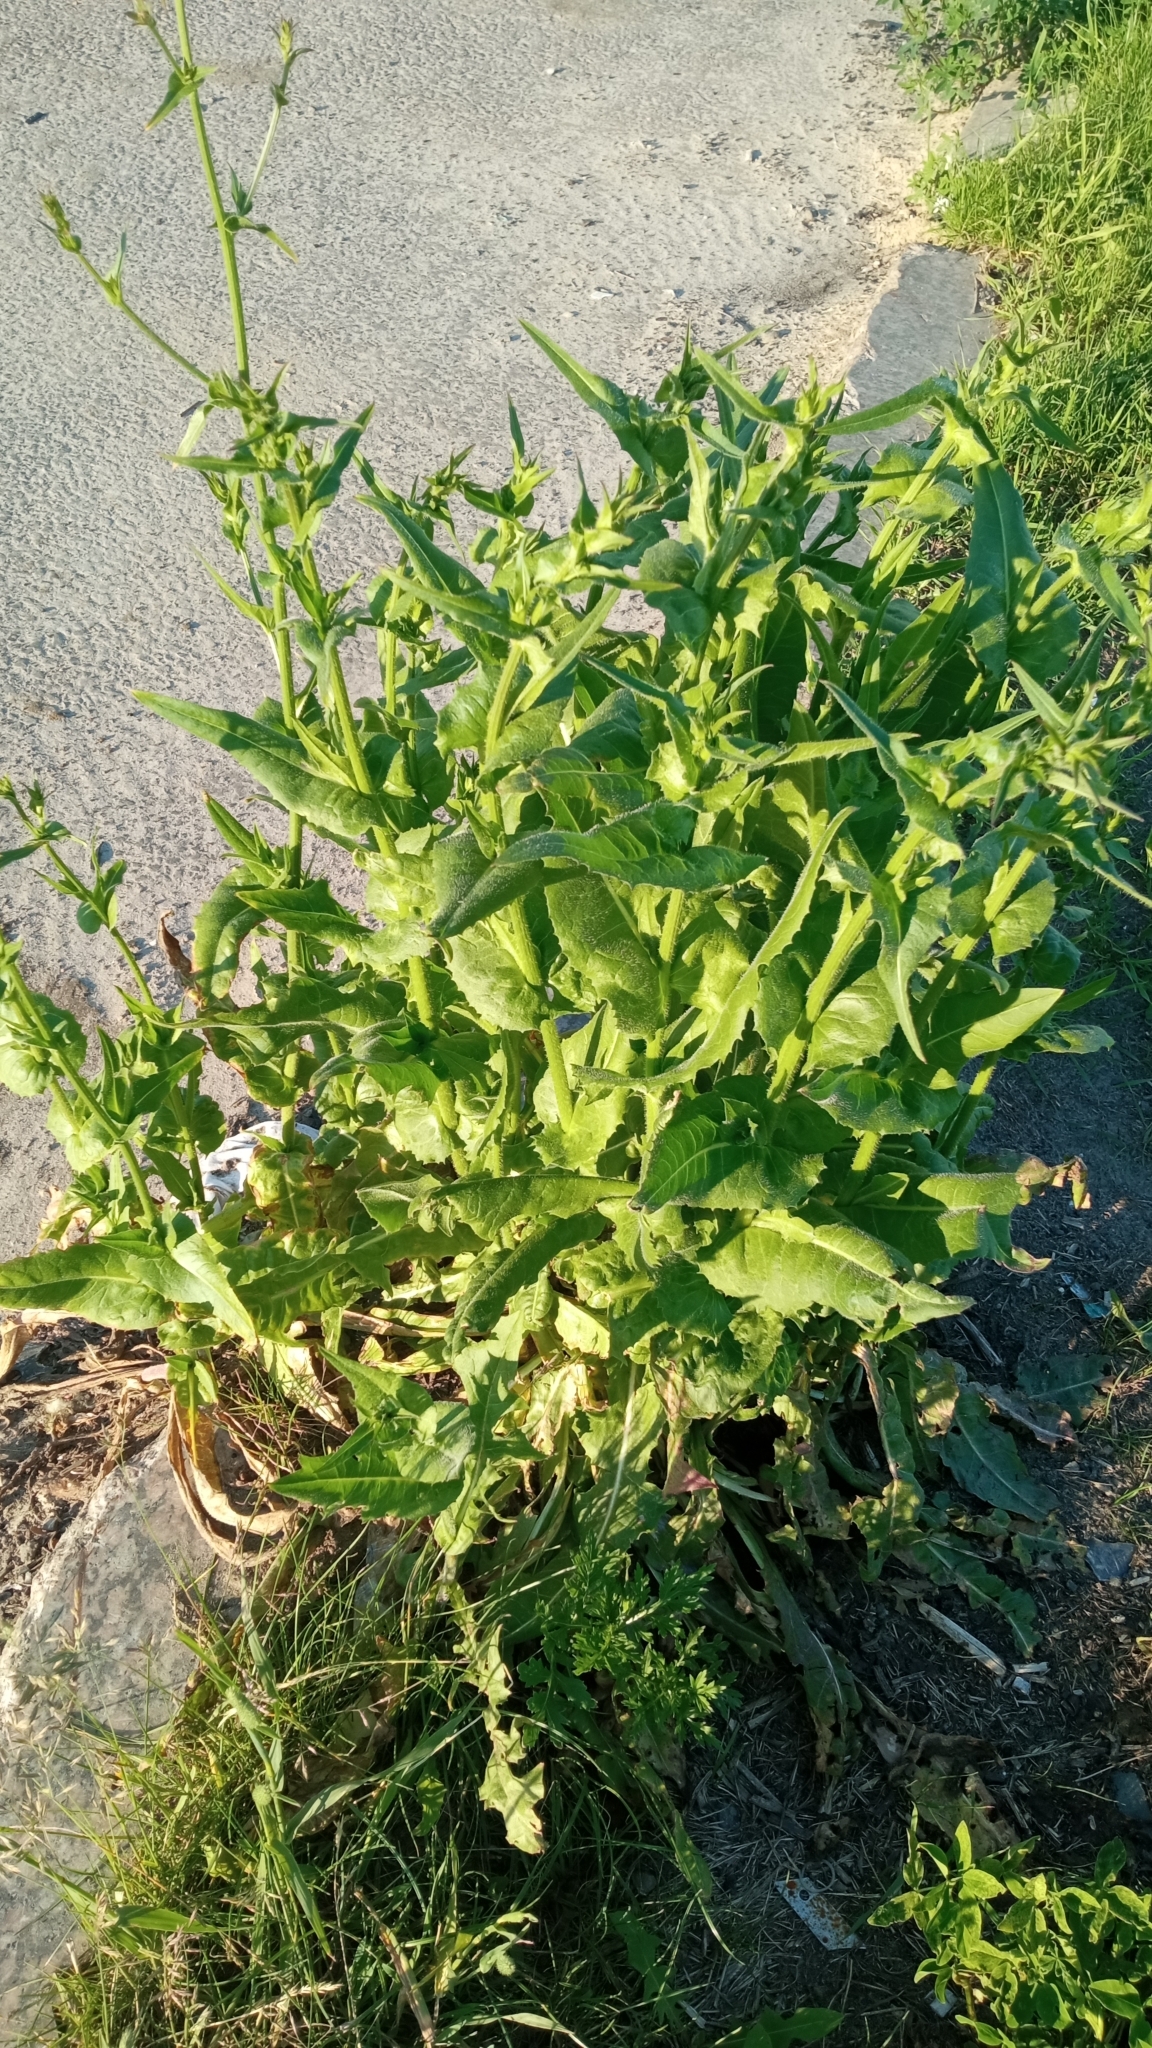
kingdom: Plantae
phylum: Tracheophyta
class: Magnoliopsida
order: Asterales
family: Asteraceae
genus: Cichorium
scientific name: Cichorium intybus
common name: Chicory
